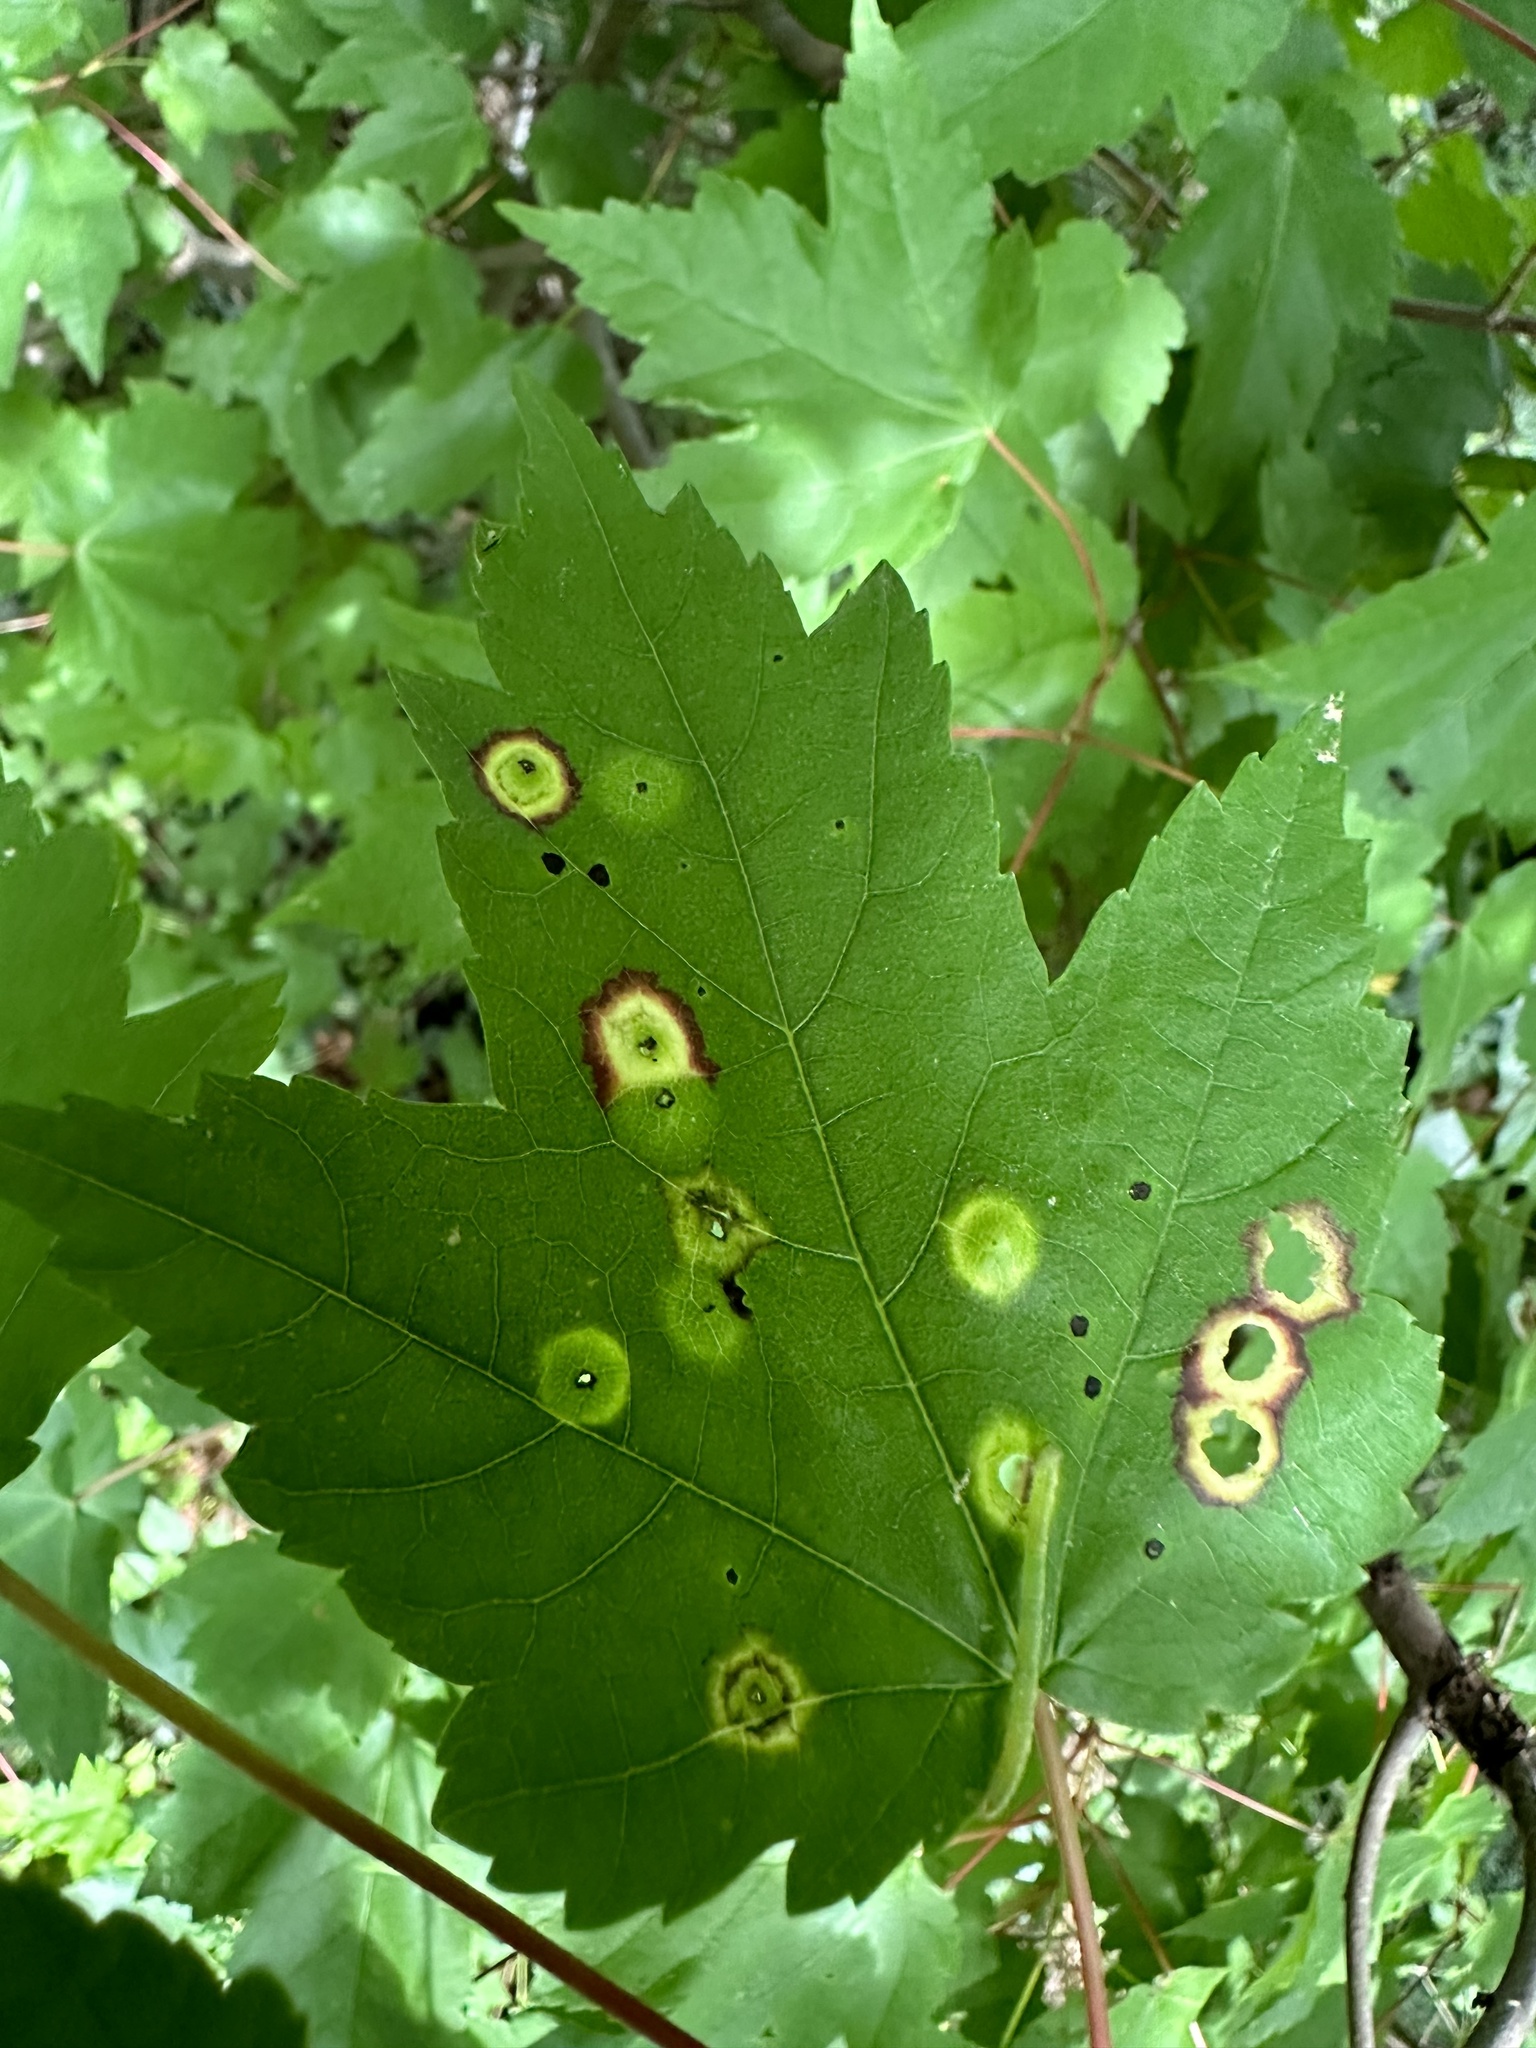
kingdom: Animalia
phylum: Arthropoda
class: Insecta
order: Diptera
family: Cecidomyiidae
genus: Acericecis
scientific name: Acericecis ocellaris
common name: Ocellate gall midge
